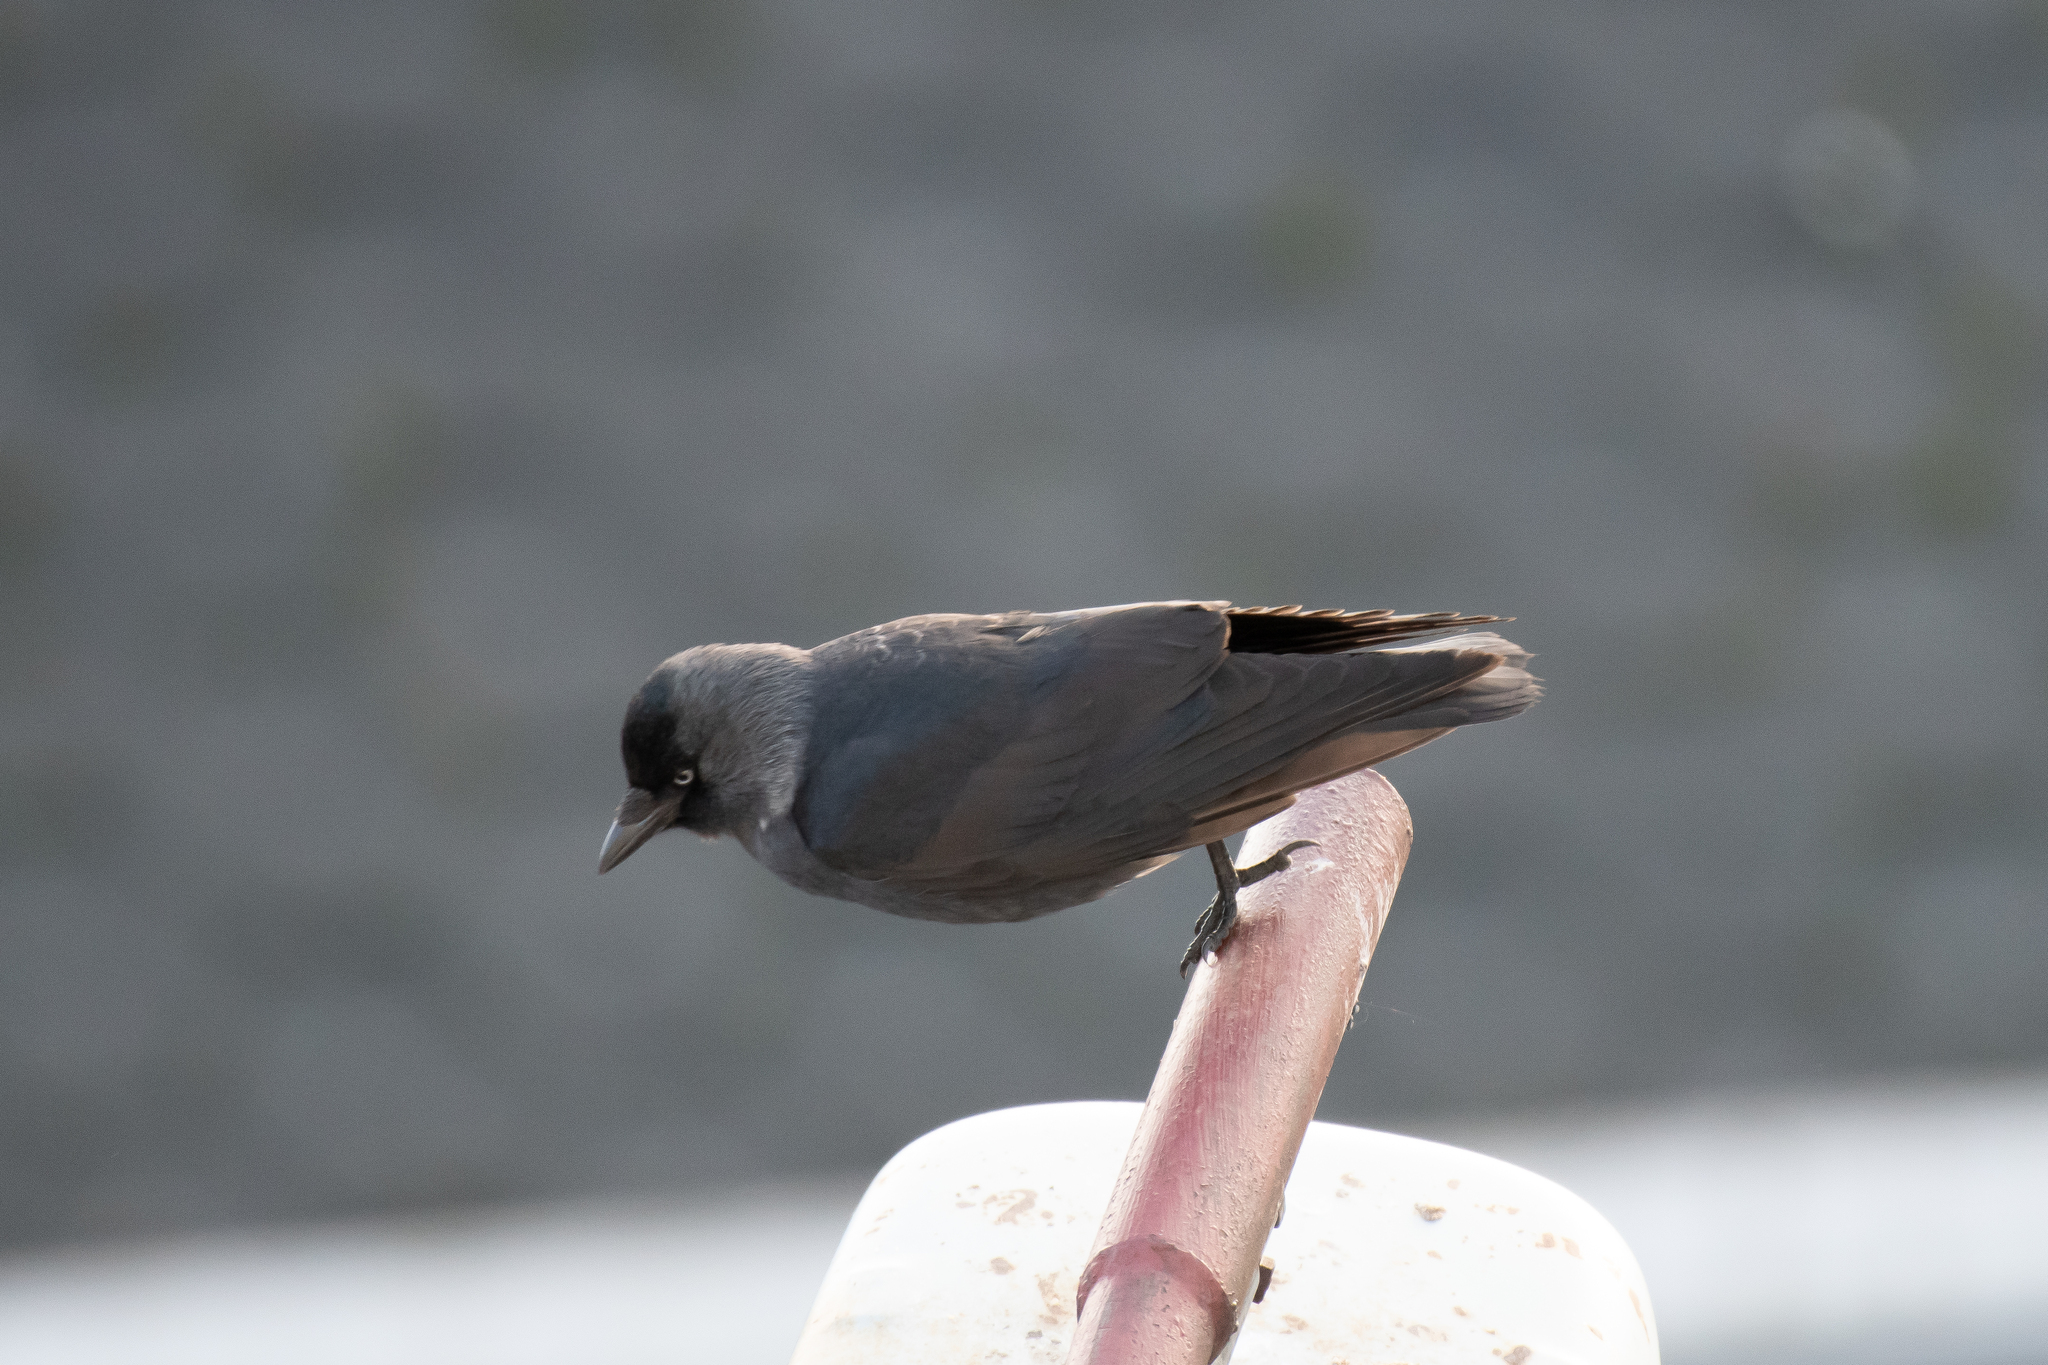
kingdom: Animalia
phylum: Chordata
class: Aves
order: Passeriformes
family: Corvidae
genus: Coloeus
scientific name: Coloeus monedula
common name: Western jackdaw
